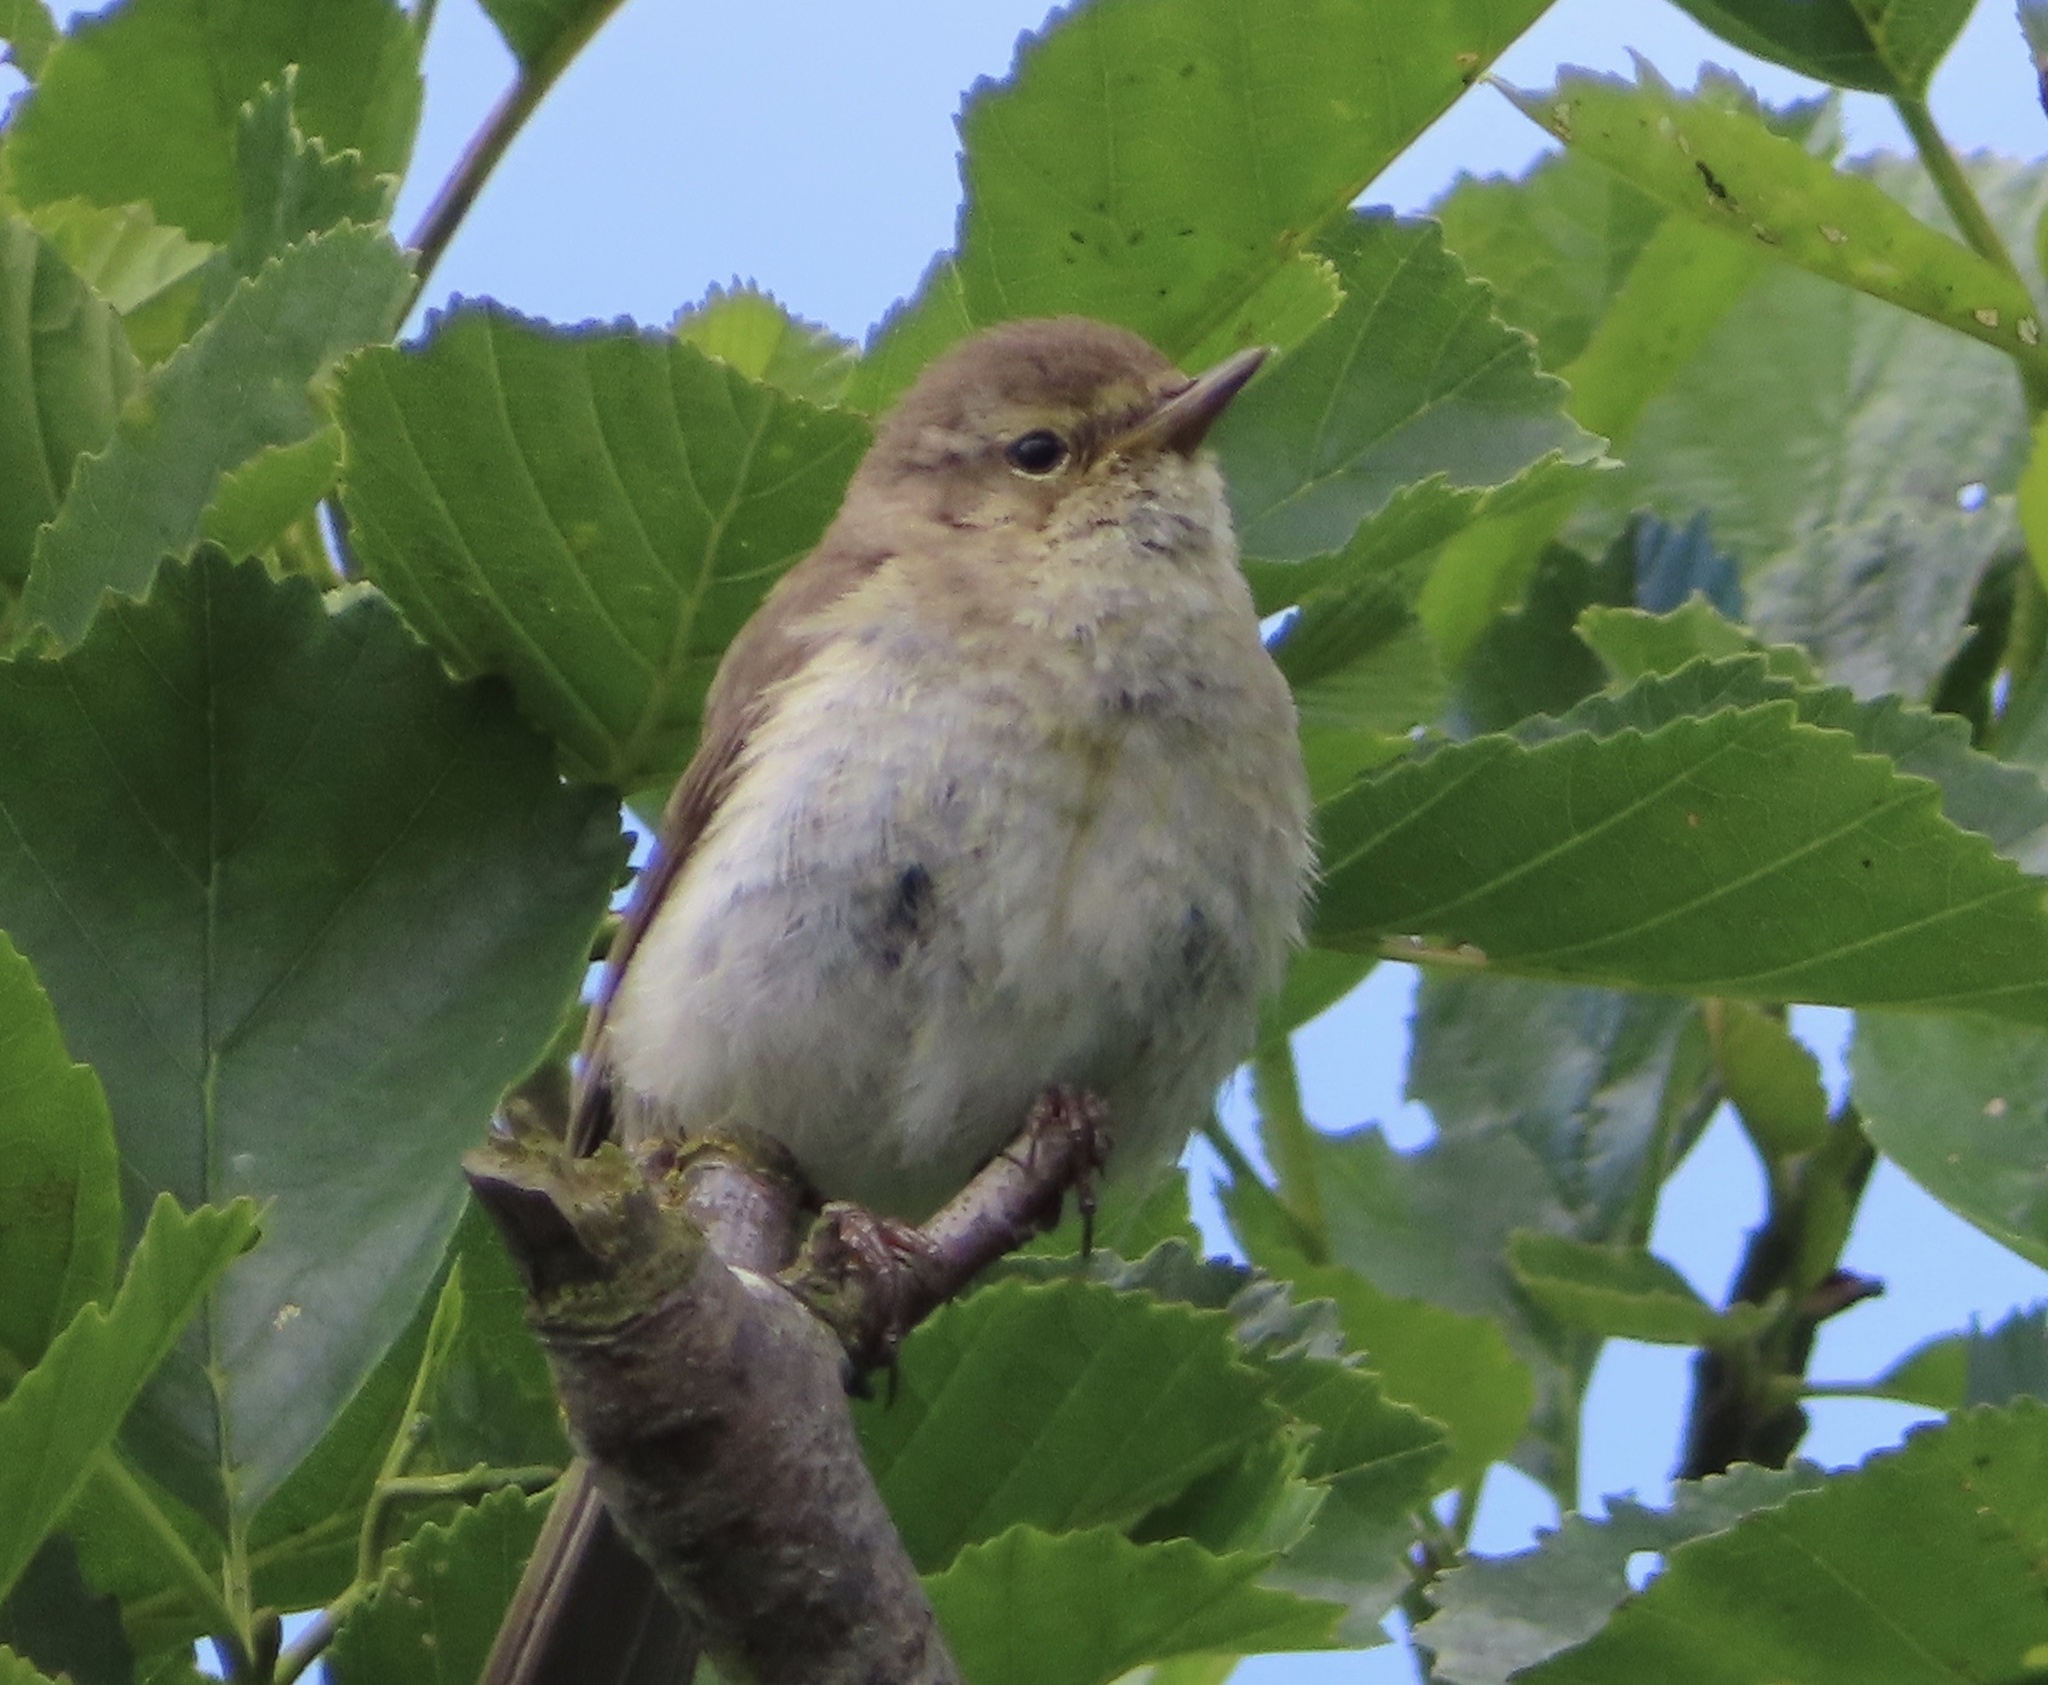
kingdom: Animalia
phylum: Chordata
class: Aves
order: Passeriformes
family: Phylloscopidae
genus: Phylloscopus
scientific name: Phylloscopus collybita
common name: Common chiffchaff
